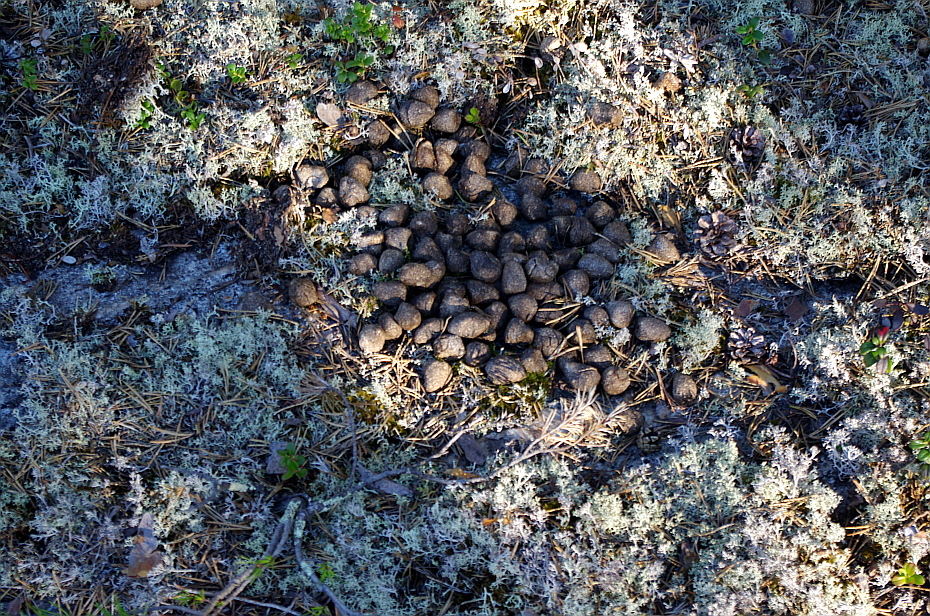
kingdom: Animalia
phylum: Chordata
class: Mammalia
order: Artiodactyla
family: Cervidae
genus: Alces
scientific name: Alces alces
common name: Moose
